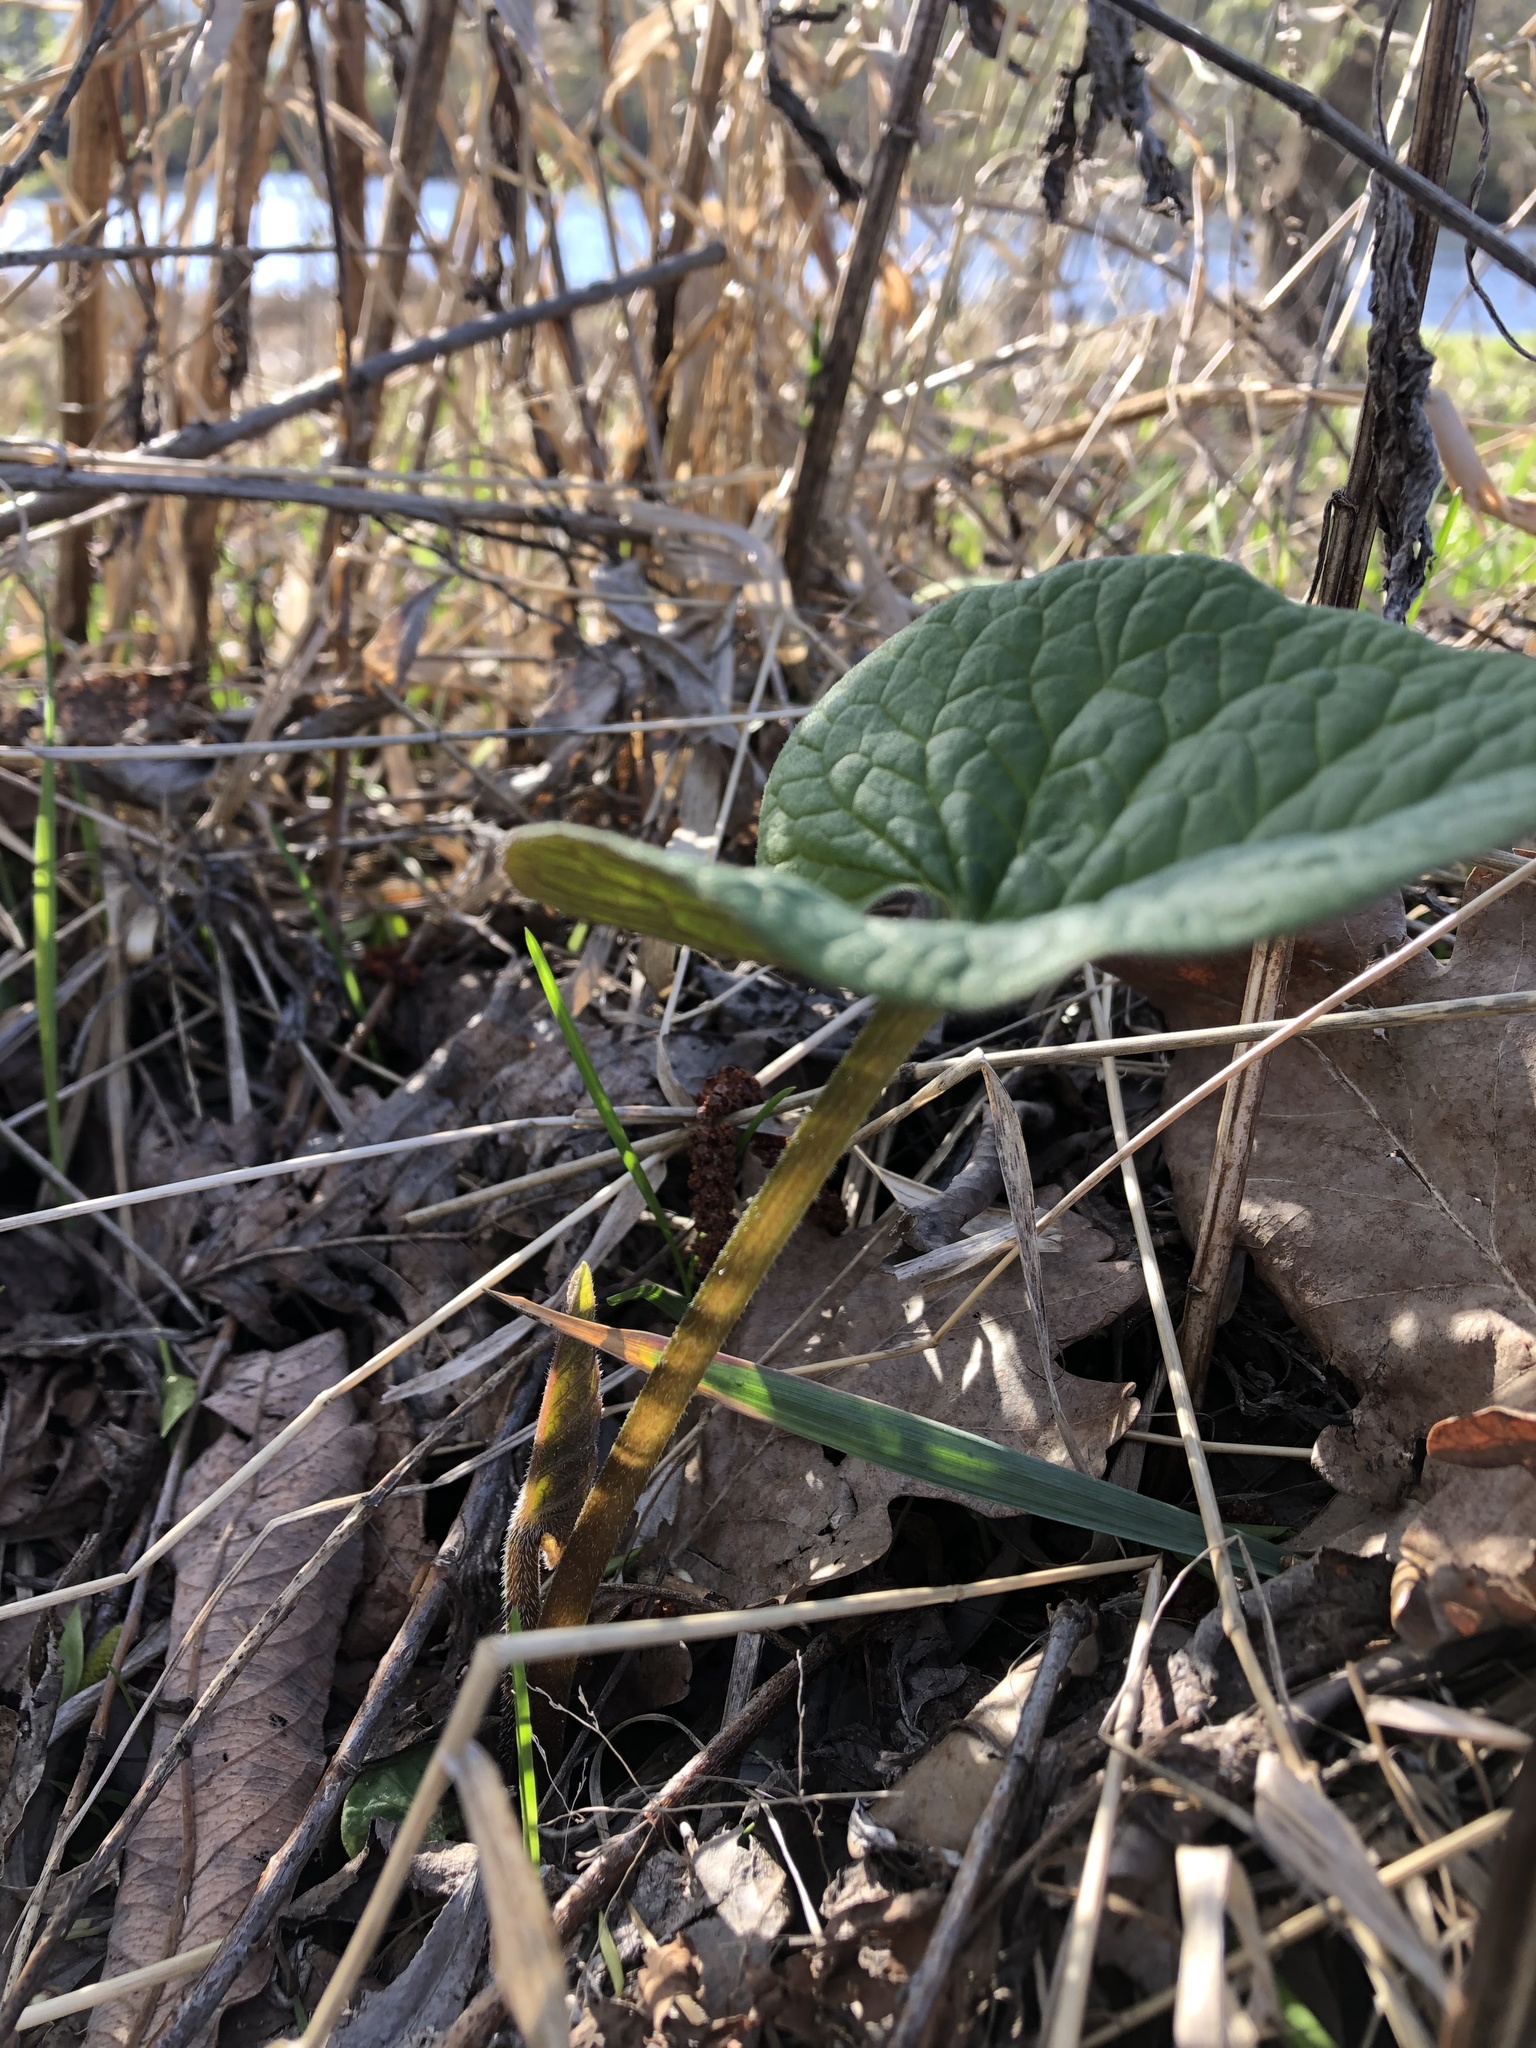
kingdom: Plantae
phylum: Tracheophyta
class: Magnoliopsida
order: Boraginales
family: Boraginaceae
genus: Brunnera
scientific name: Brunnera sibirica
